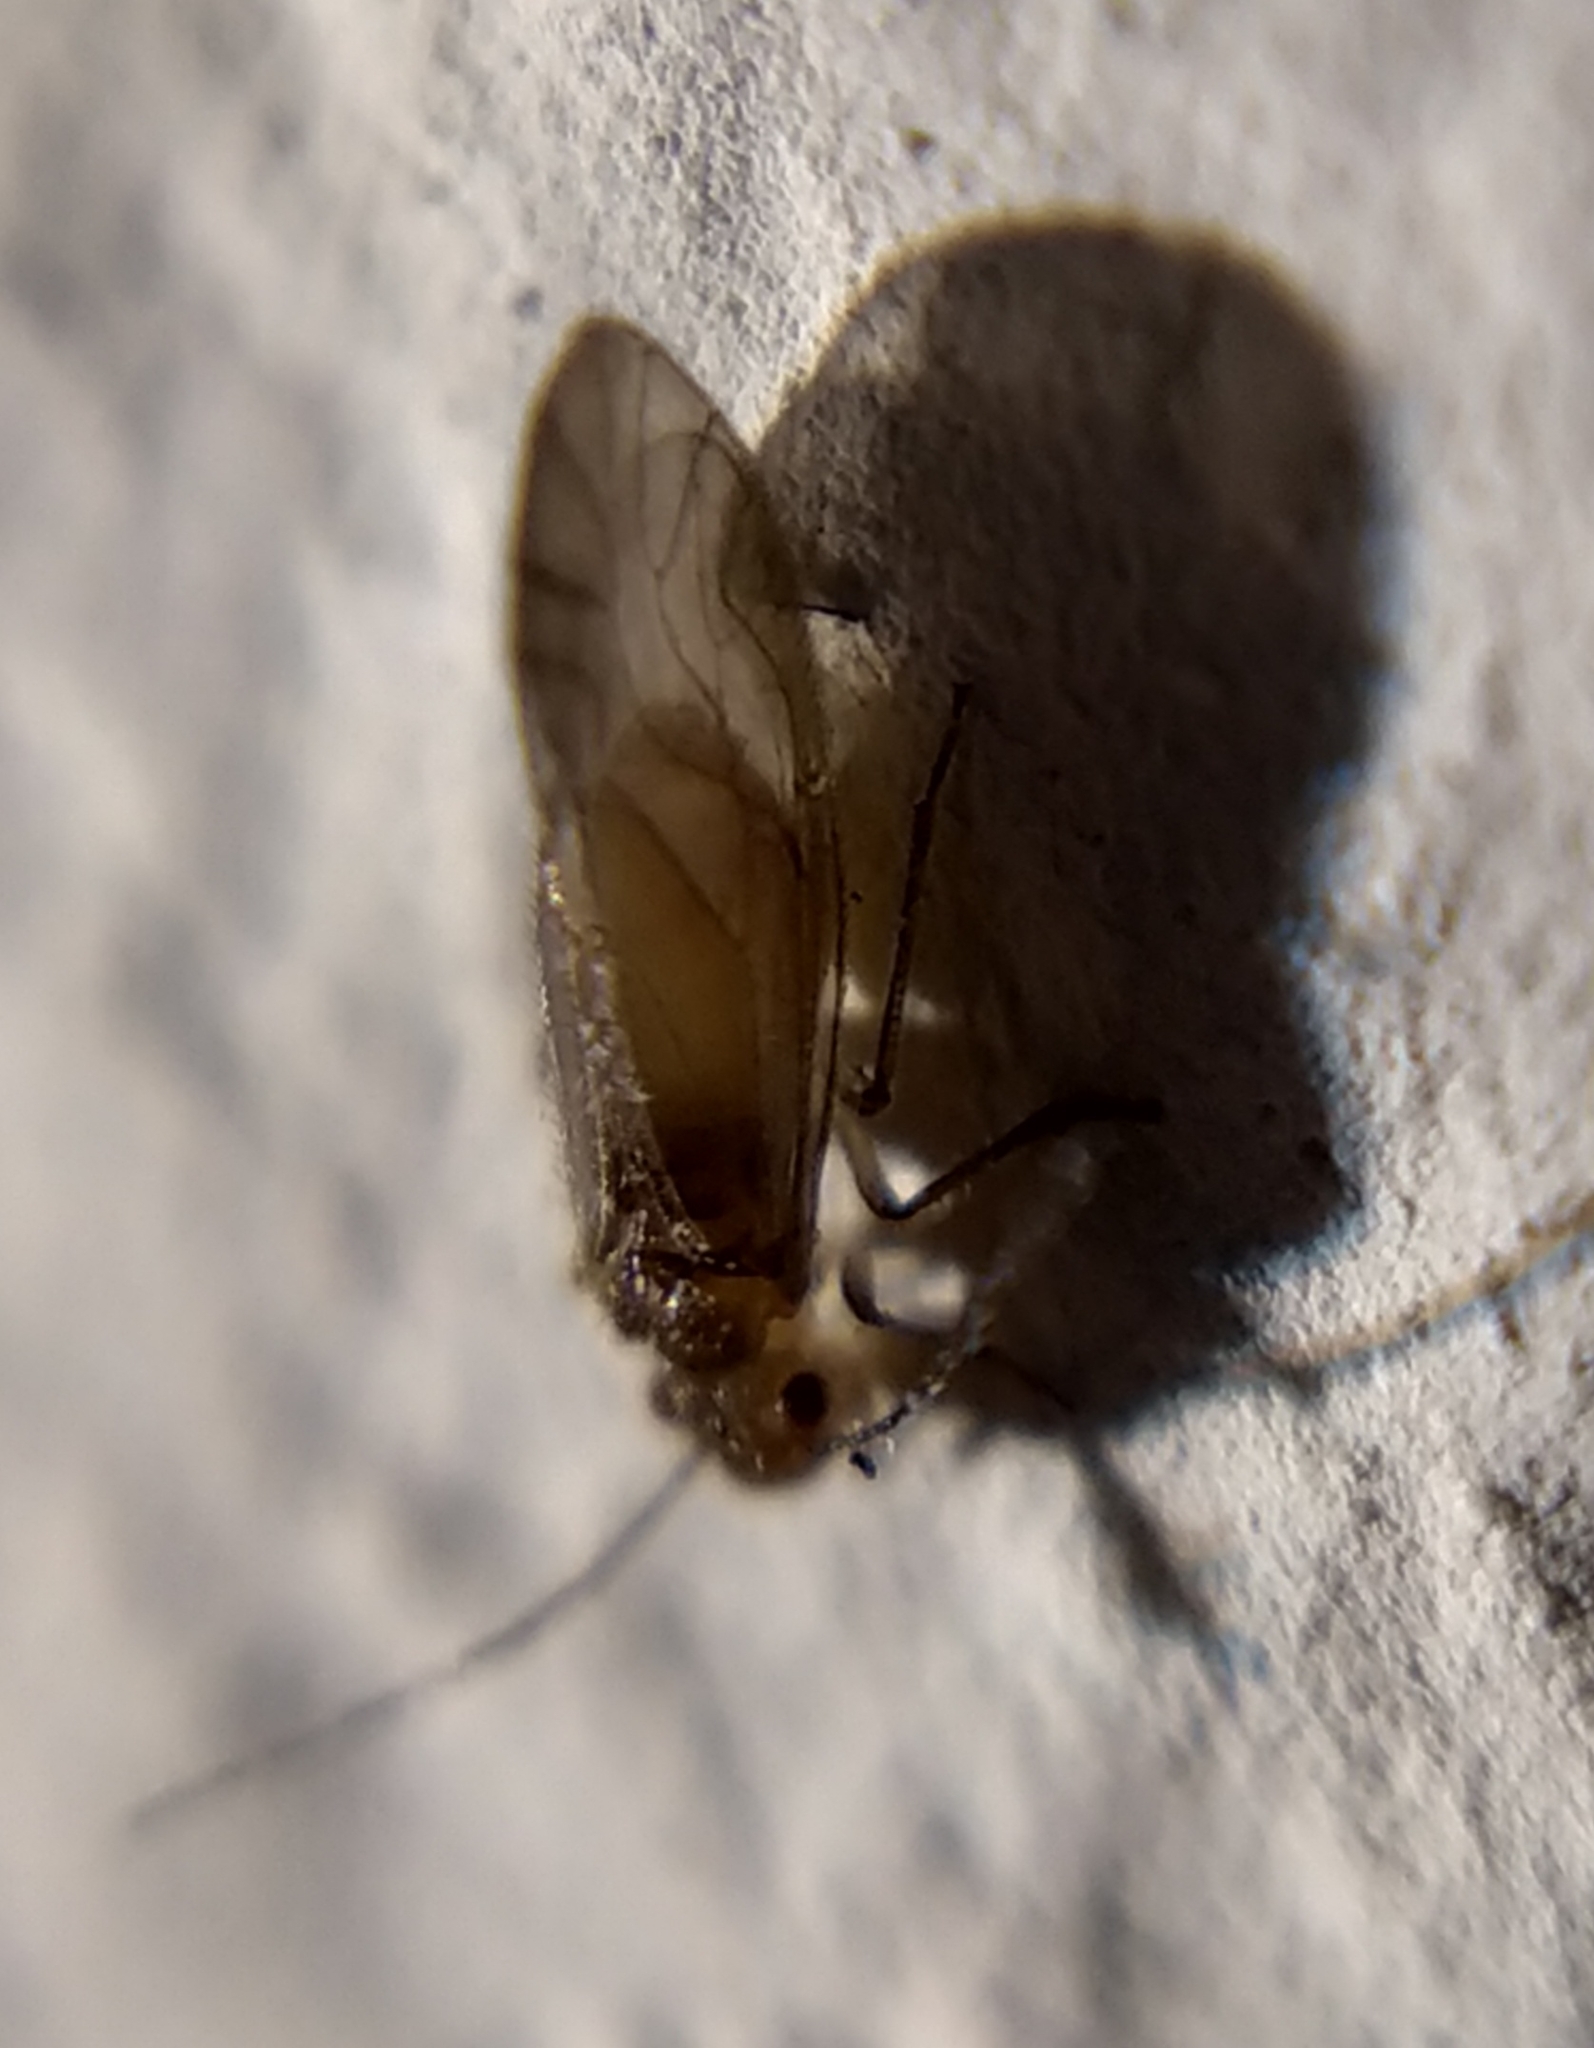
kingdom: Animalia
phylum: Arthropoda
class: Insecta
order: Psocodea
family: Caeciliusidae
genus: Valenzuela
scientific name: Valenzuela burmeisteri
